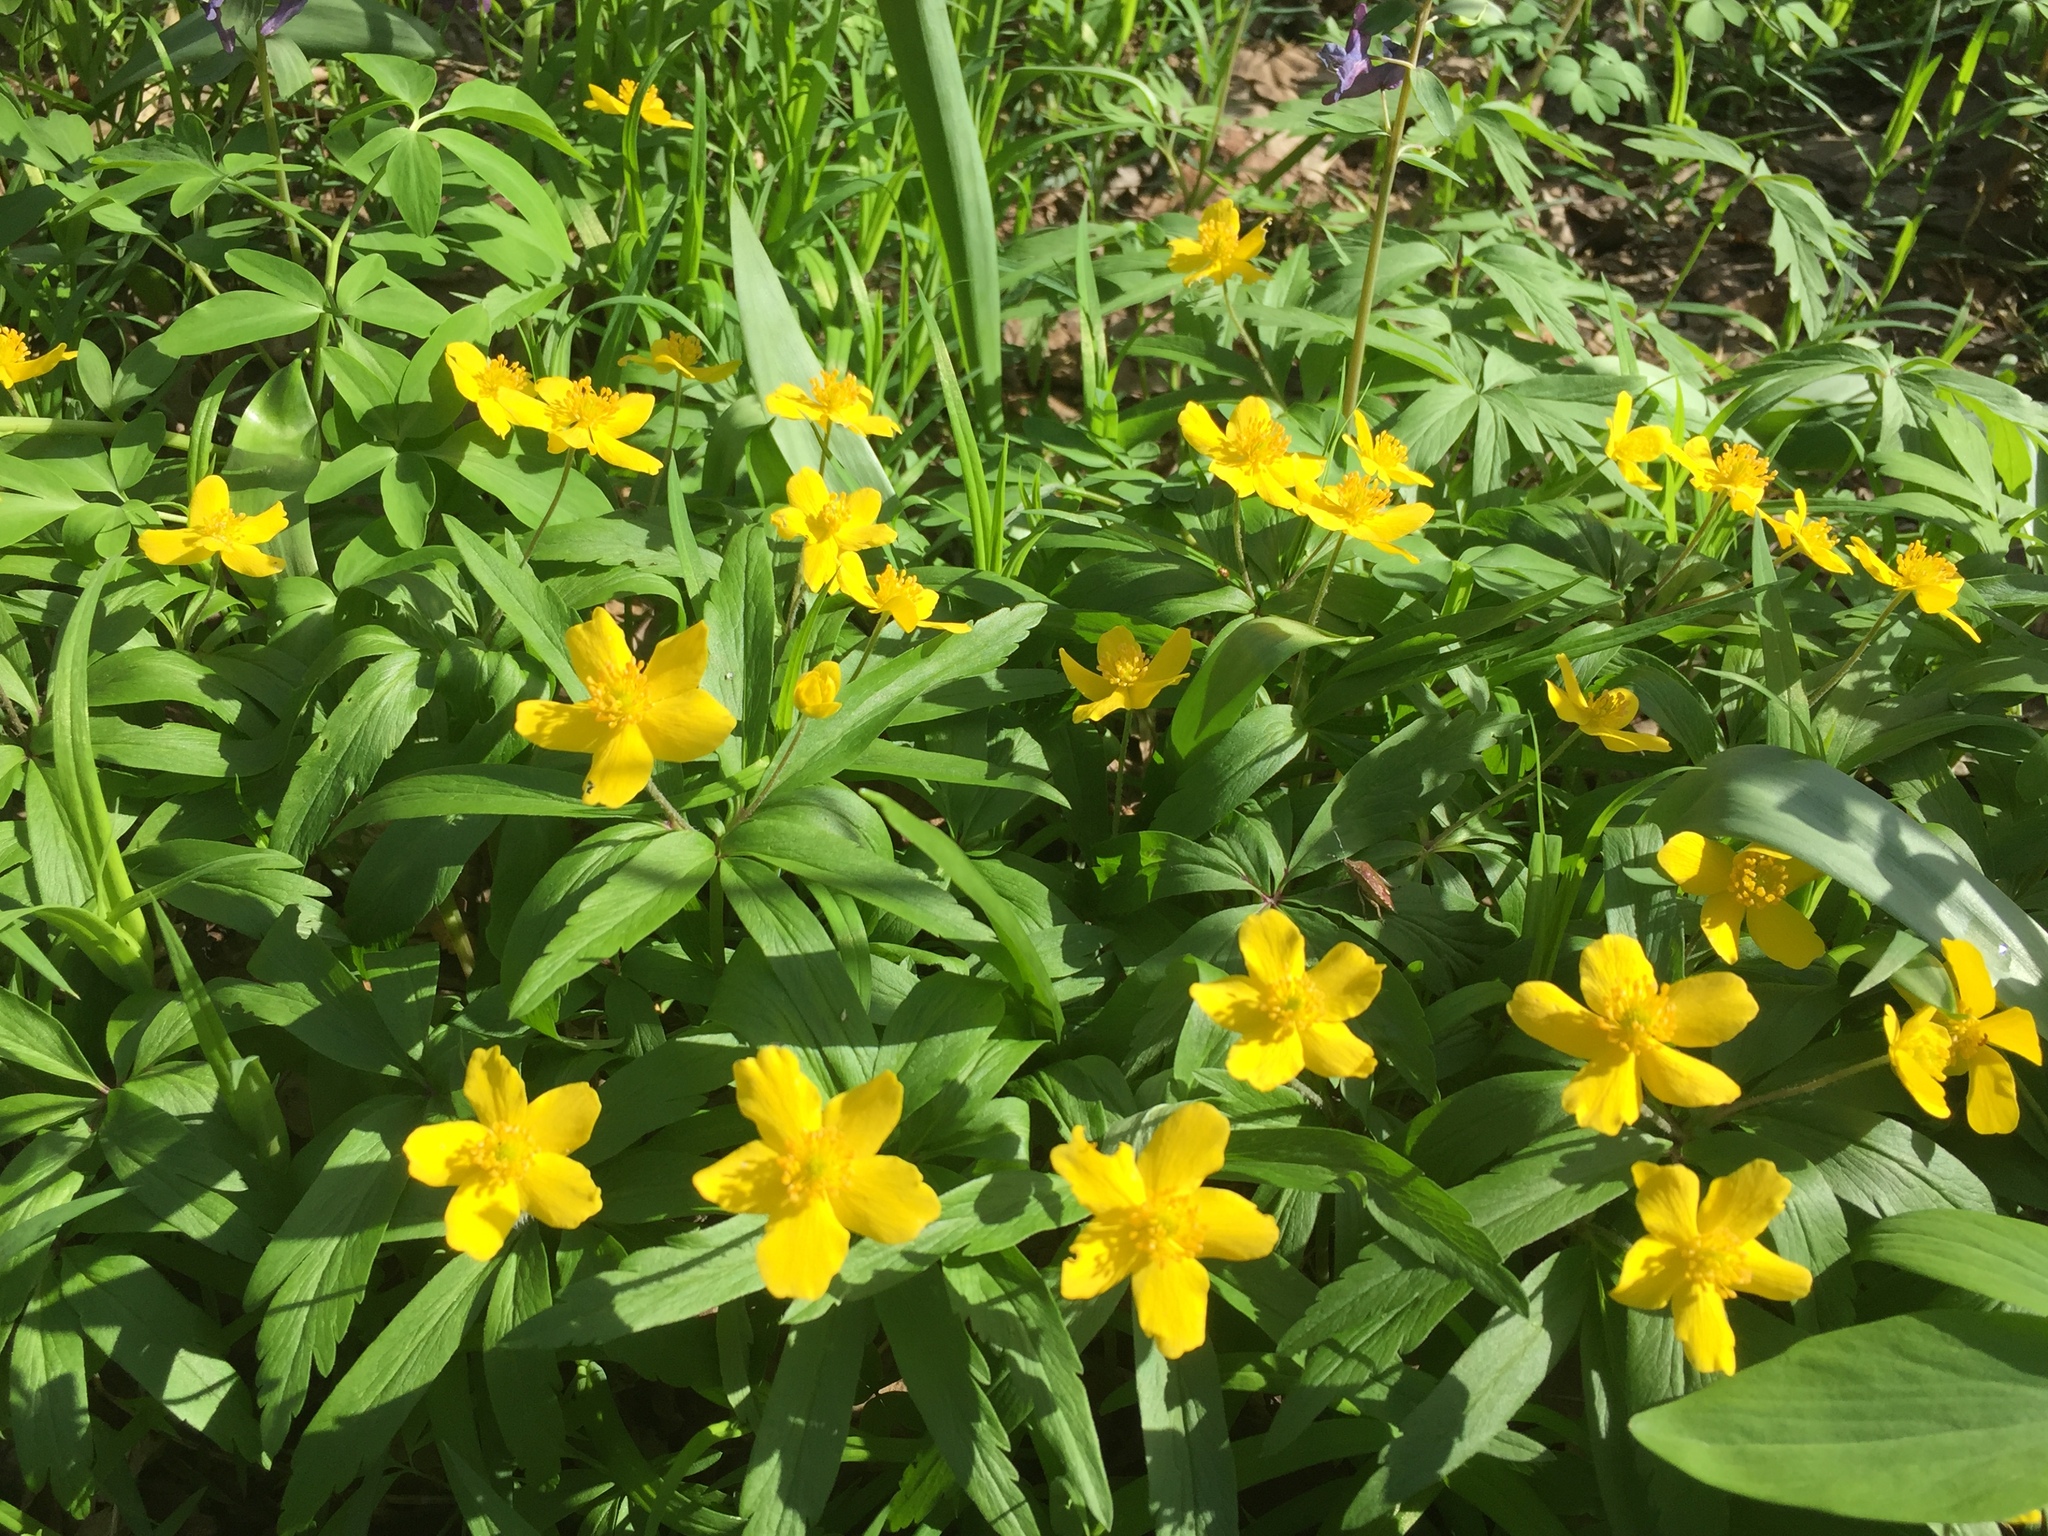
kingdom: Plantae
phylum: Tracheophyta
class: Magnoliopsida
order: Ranunculales
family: Ranunculaceae
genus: Anemone
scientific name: Anemone ranunculoides
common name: Yellow anemone
